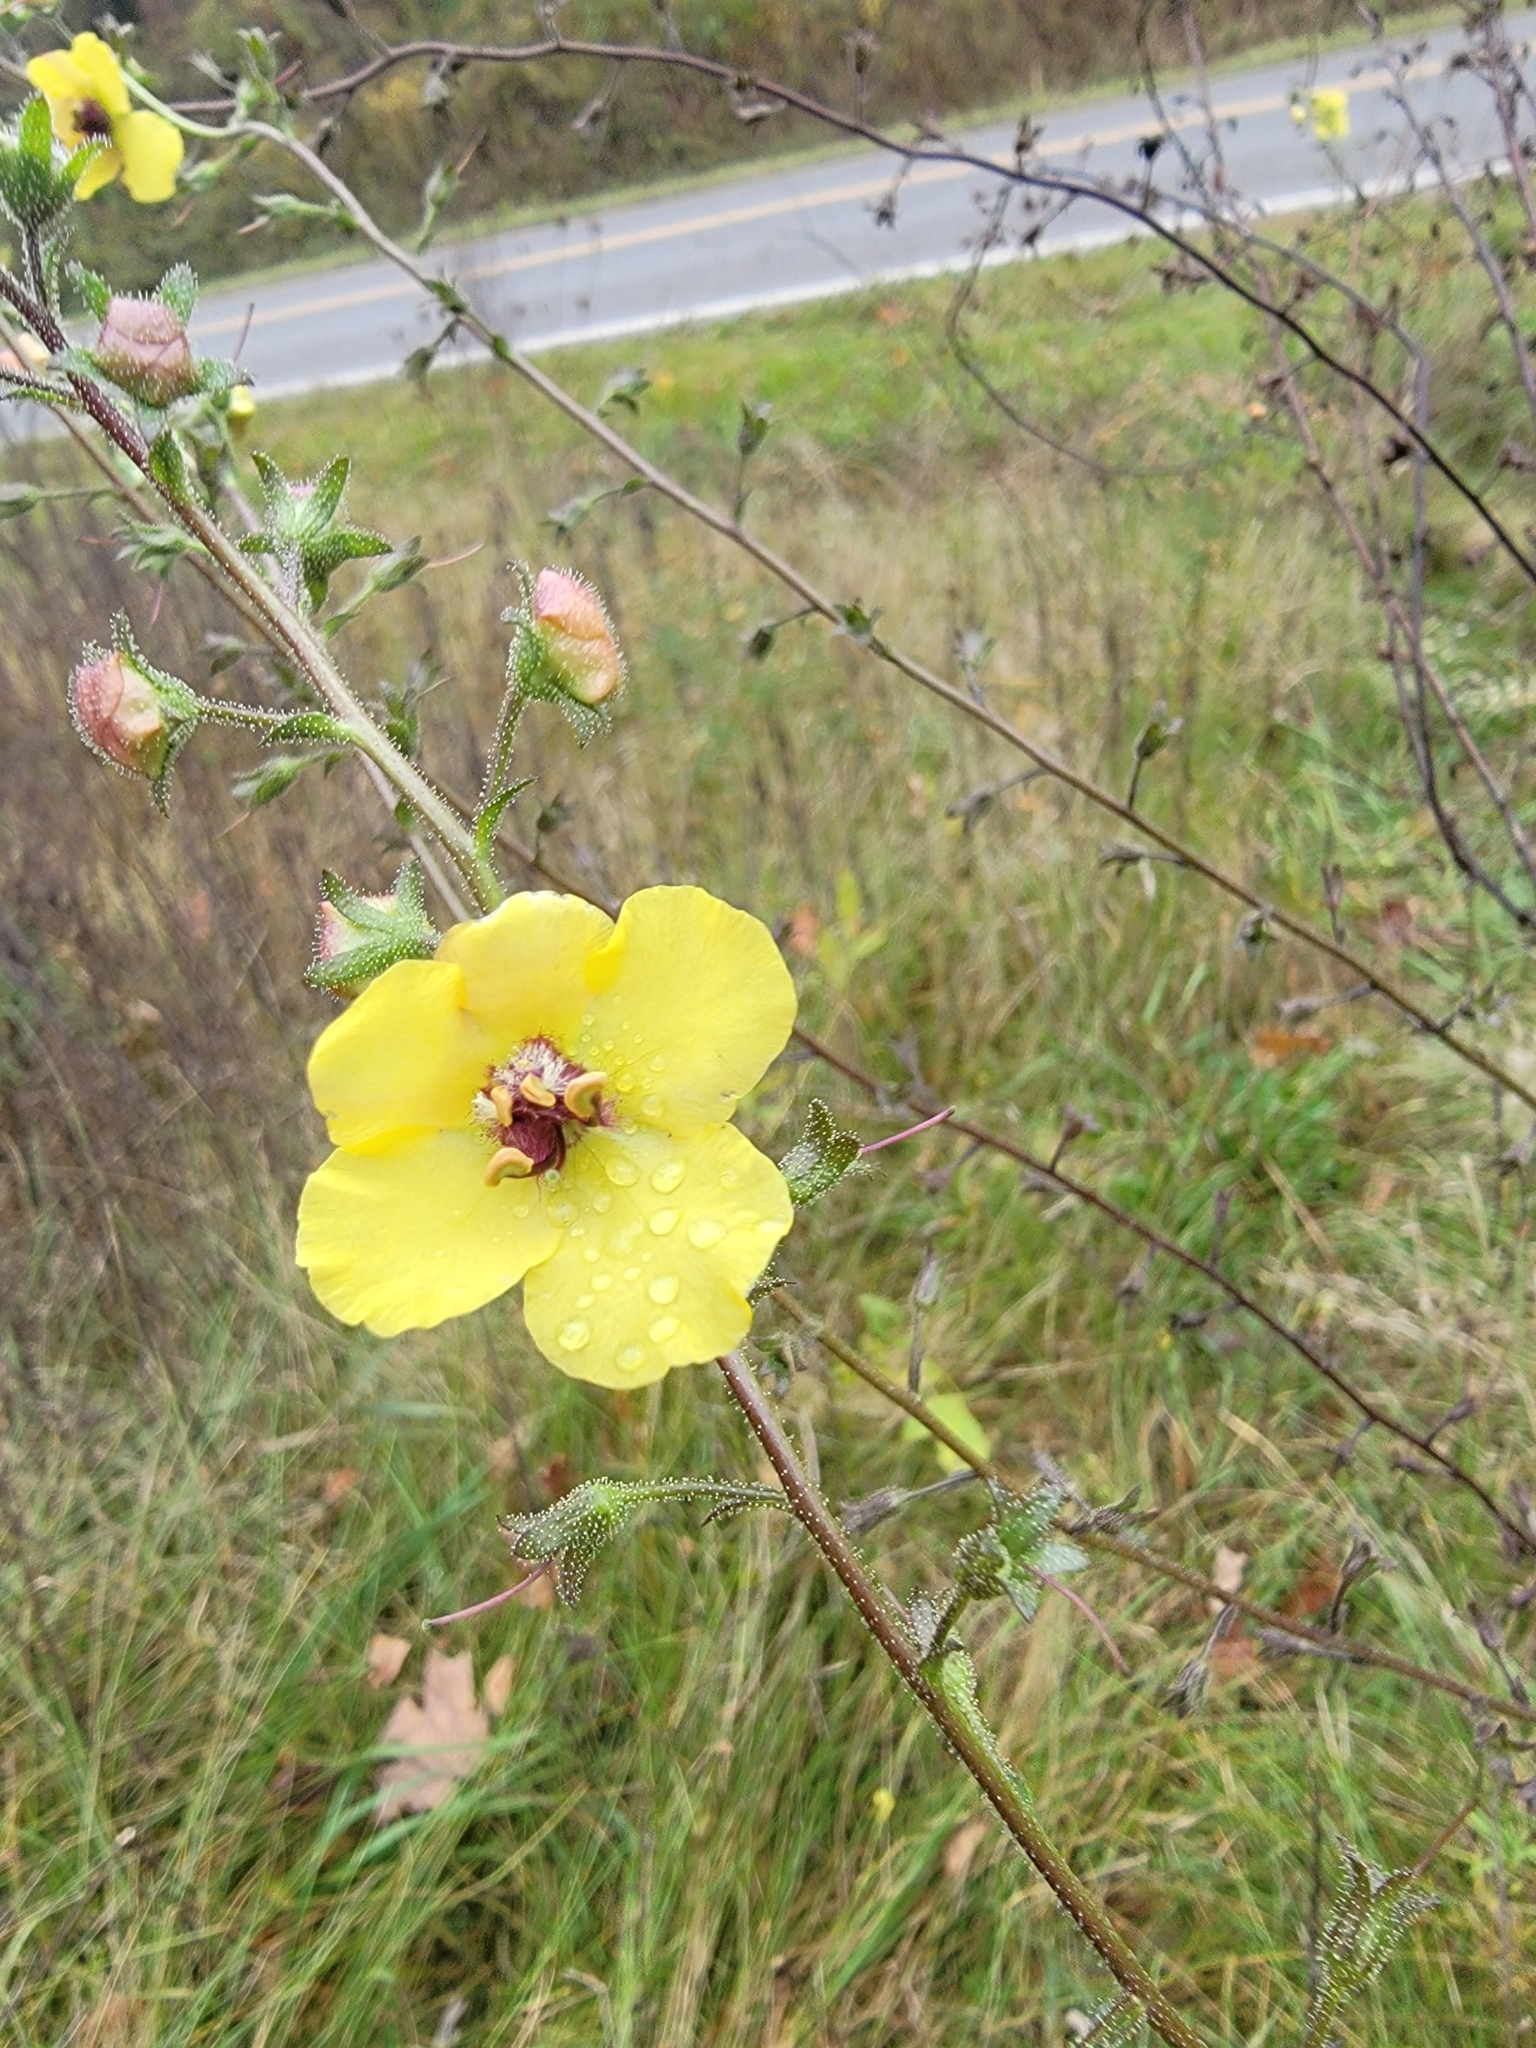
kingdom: Plantae
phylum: Tracheophyta
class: Magnoliopsida
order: Lamiales
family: Scrophulariaceae
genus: Verbascum
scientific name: Verbascum blattaria
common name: Moth mullein
